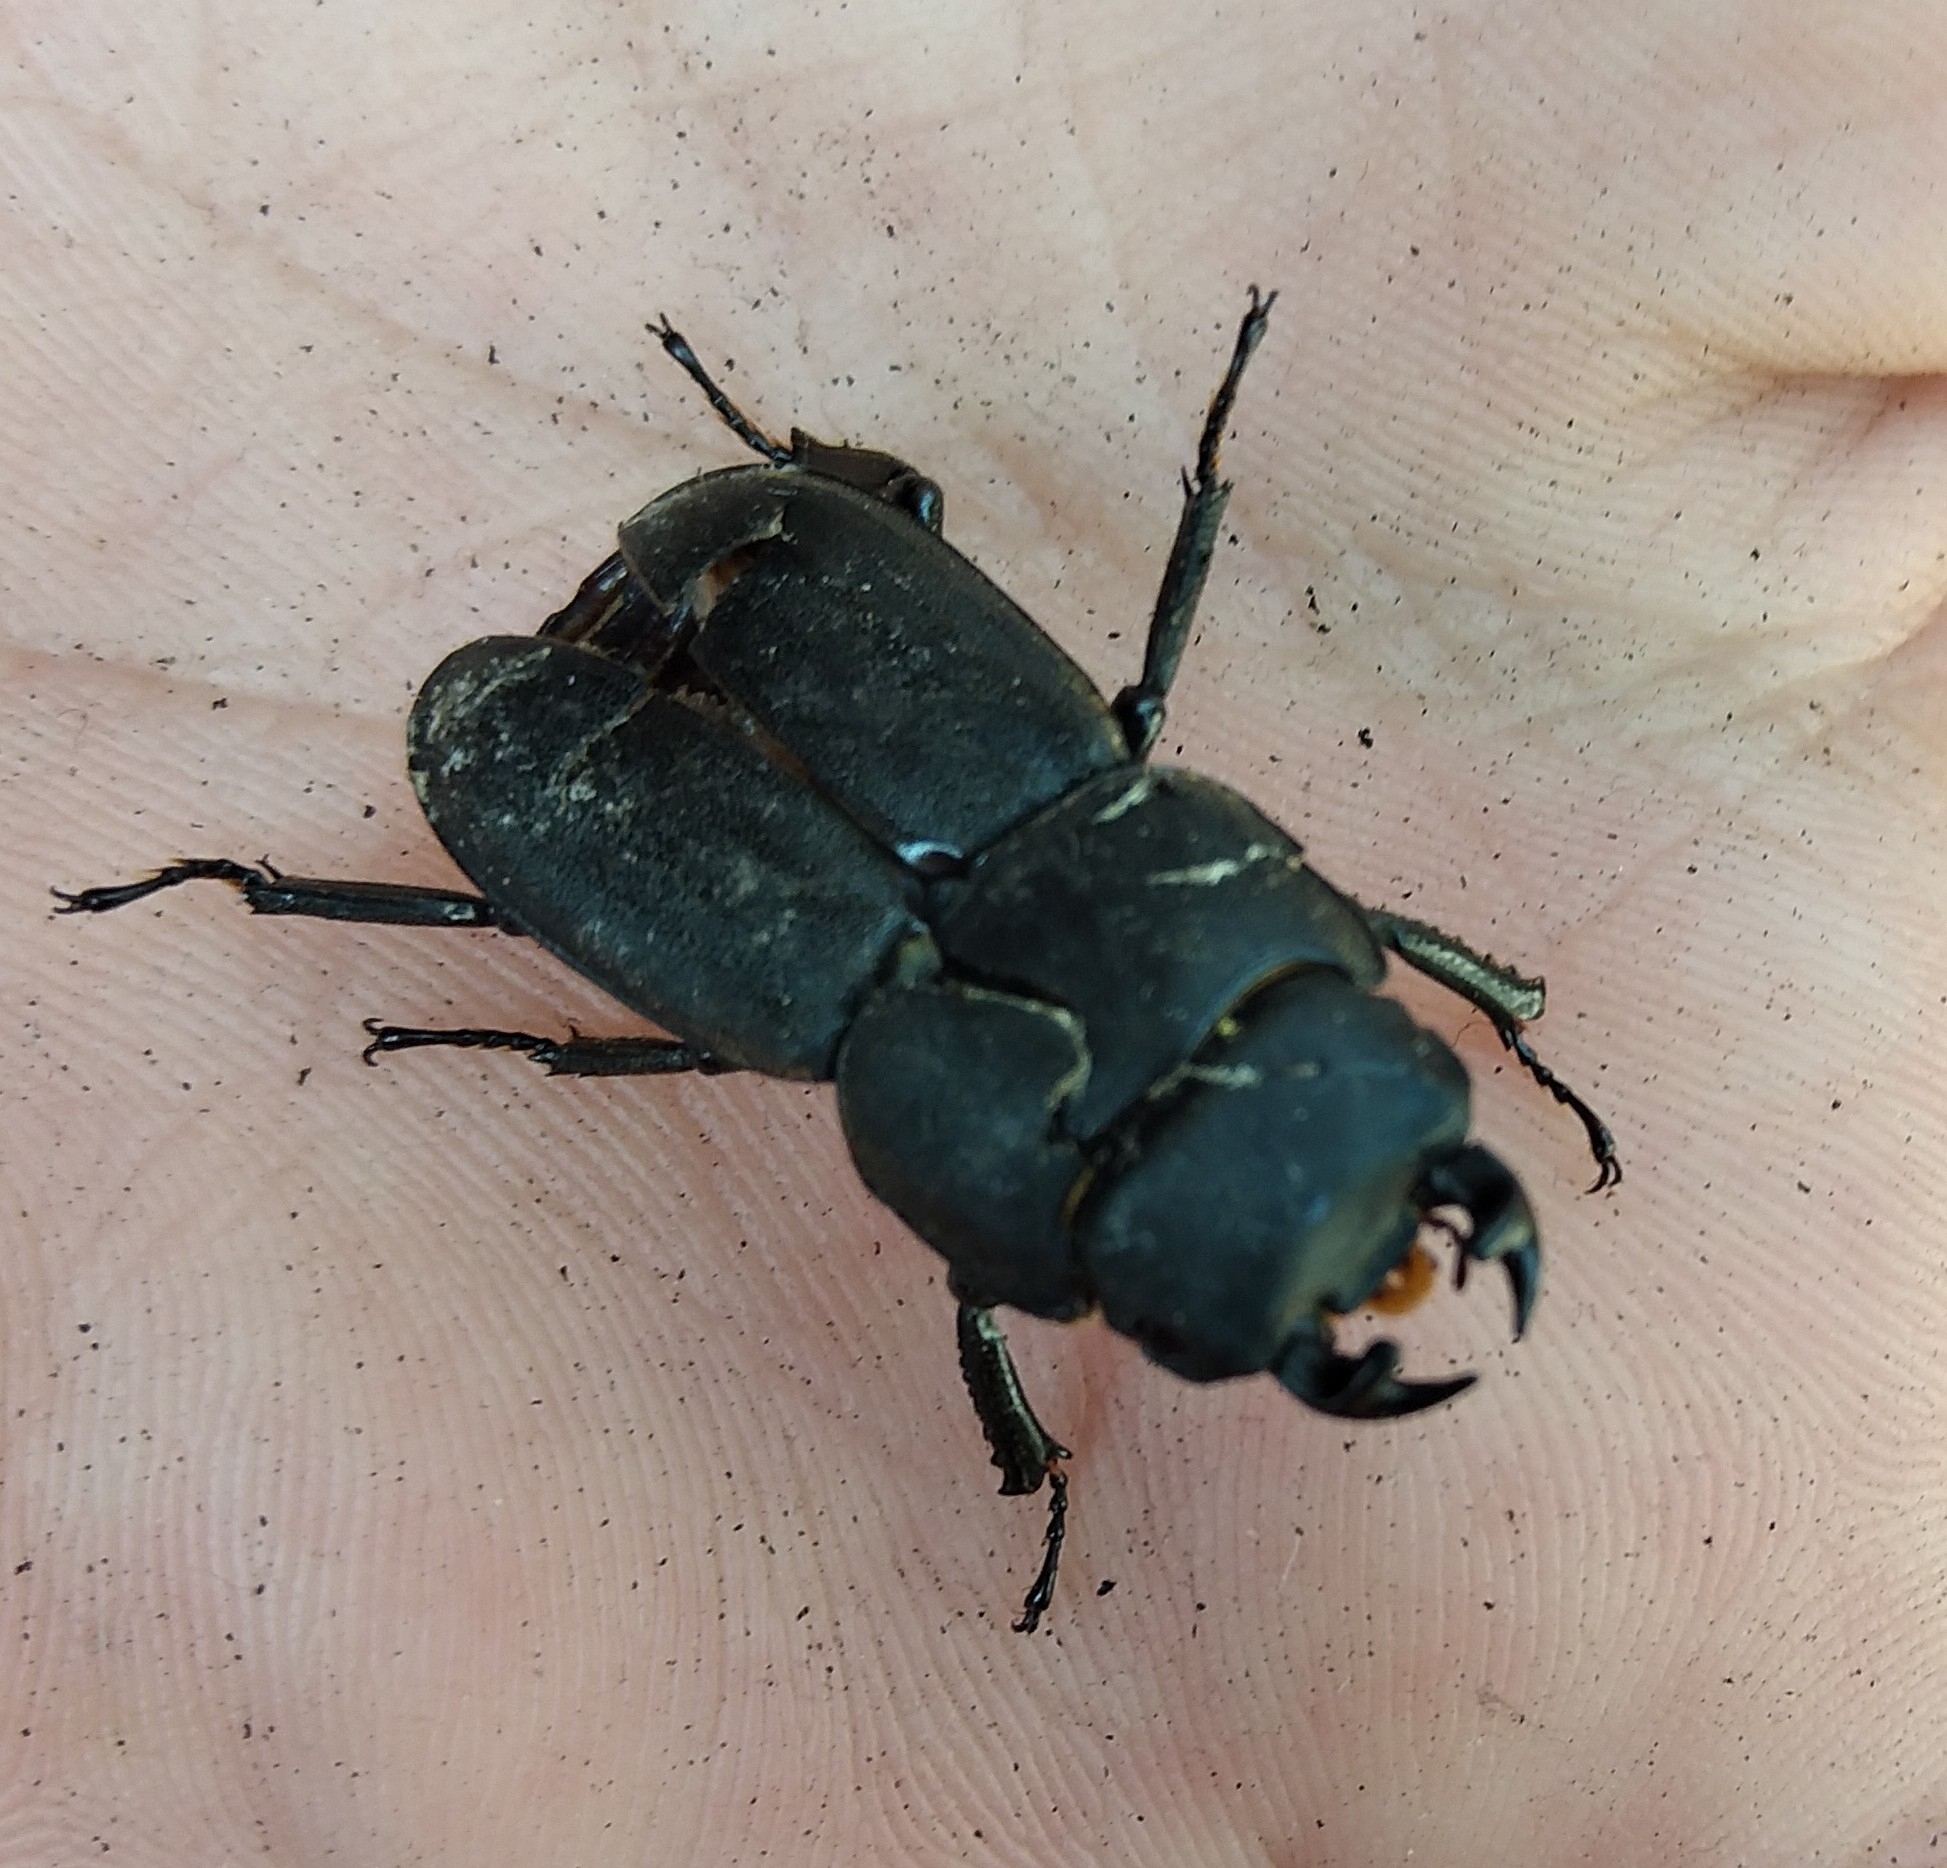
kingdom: Animalia
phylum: Arthropoda
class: Insecta
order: Coleoptera
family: Lucanidae
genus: Dorcus
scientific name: Dorcus parallelipipedus
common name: Lesser stag beetle
